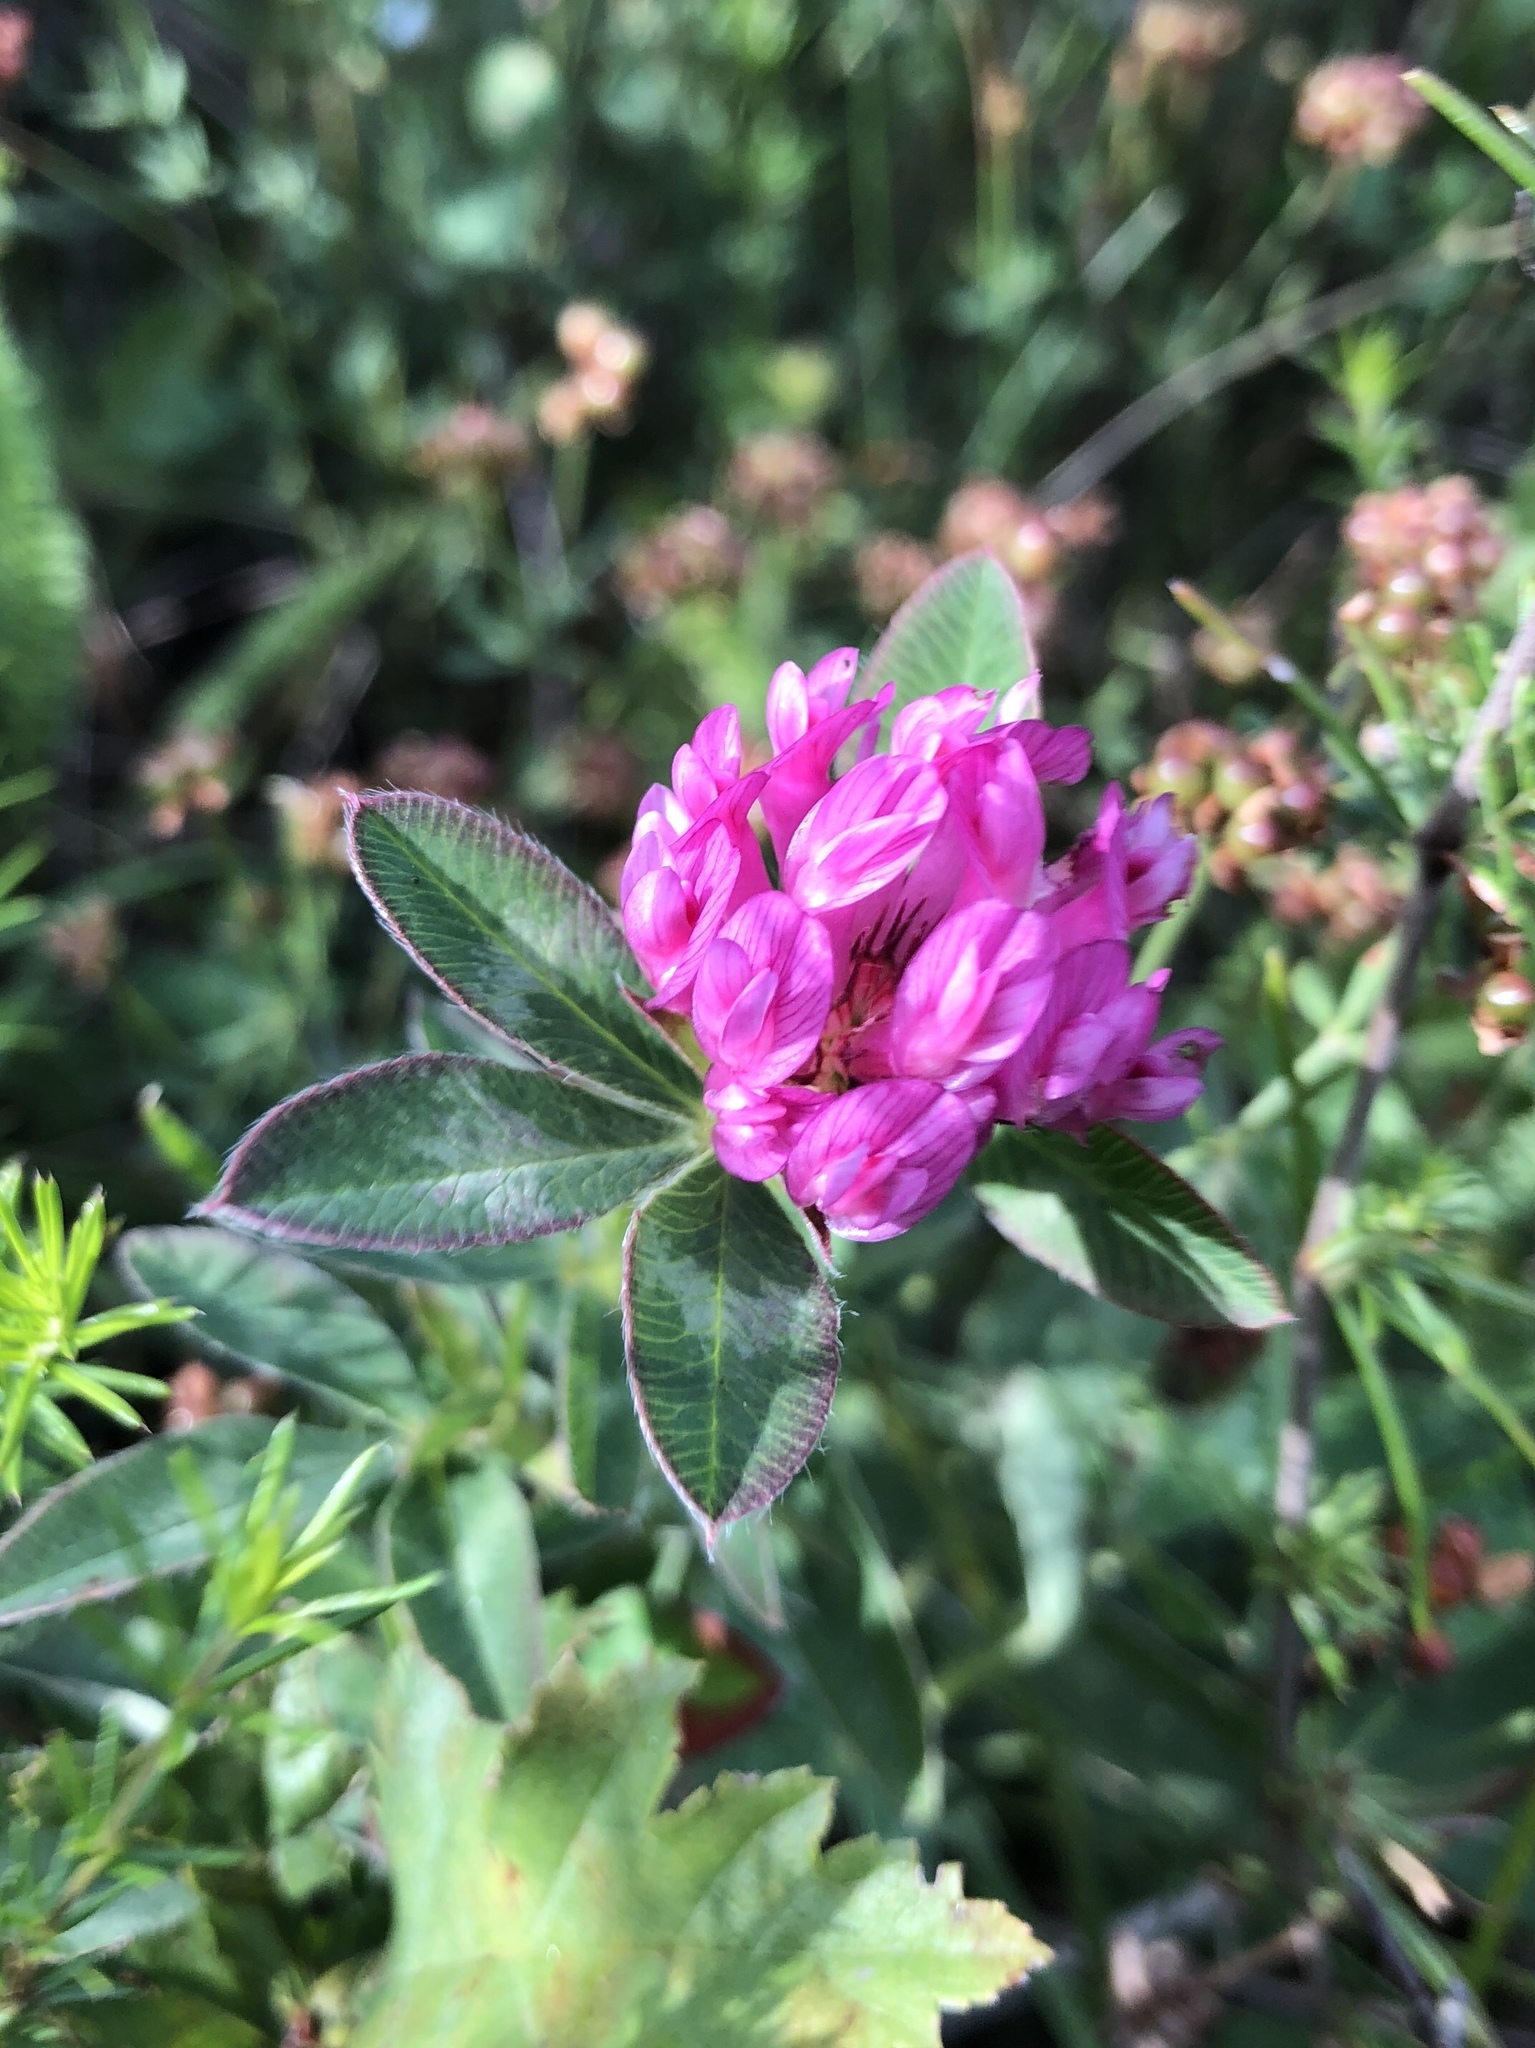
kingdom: Plantae
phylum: Tracheophyta
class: Magnoliopsida
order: Fabales
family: Fabaceae
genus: Trifolium
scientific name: Trifolium pratense
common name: Red clover
